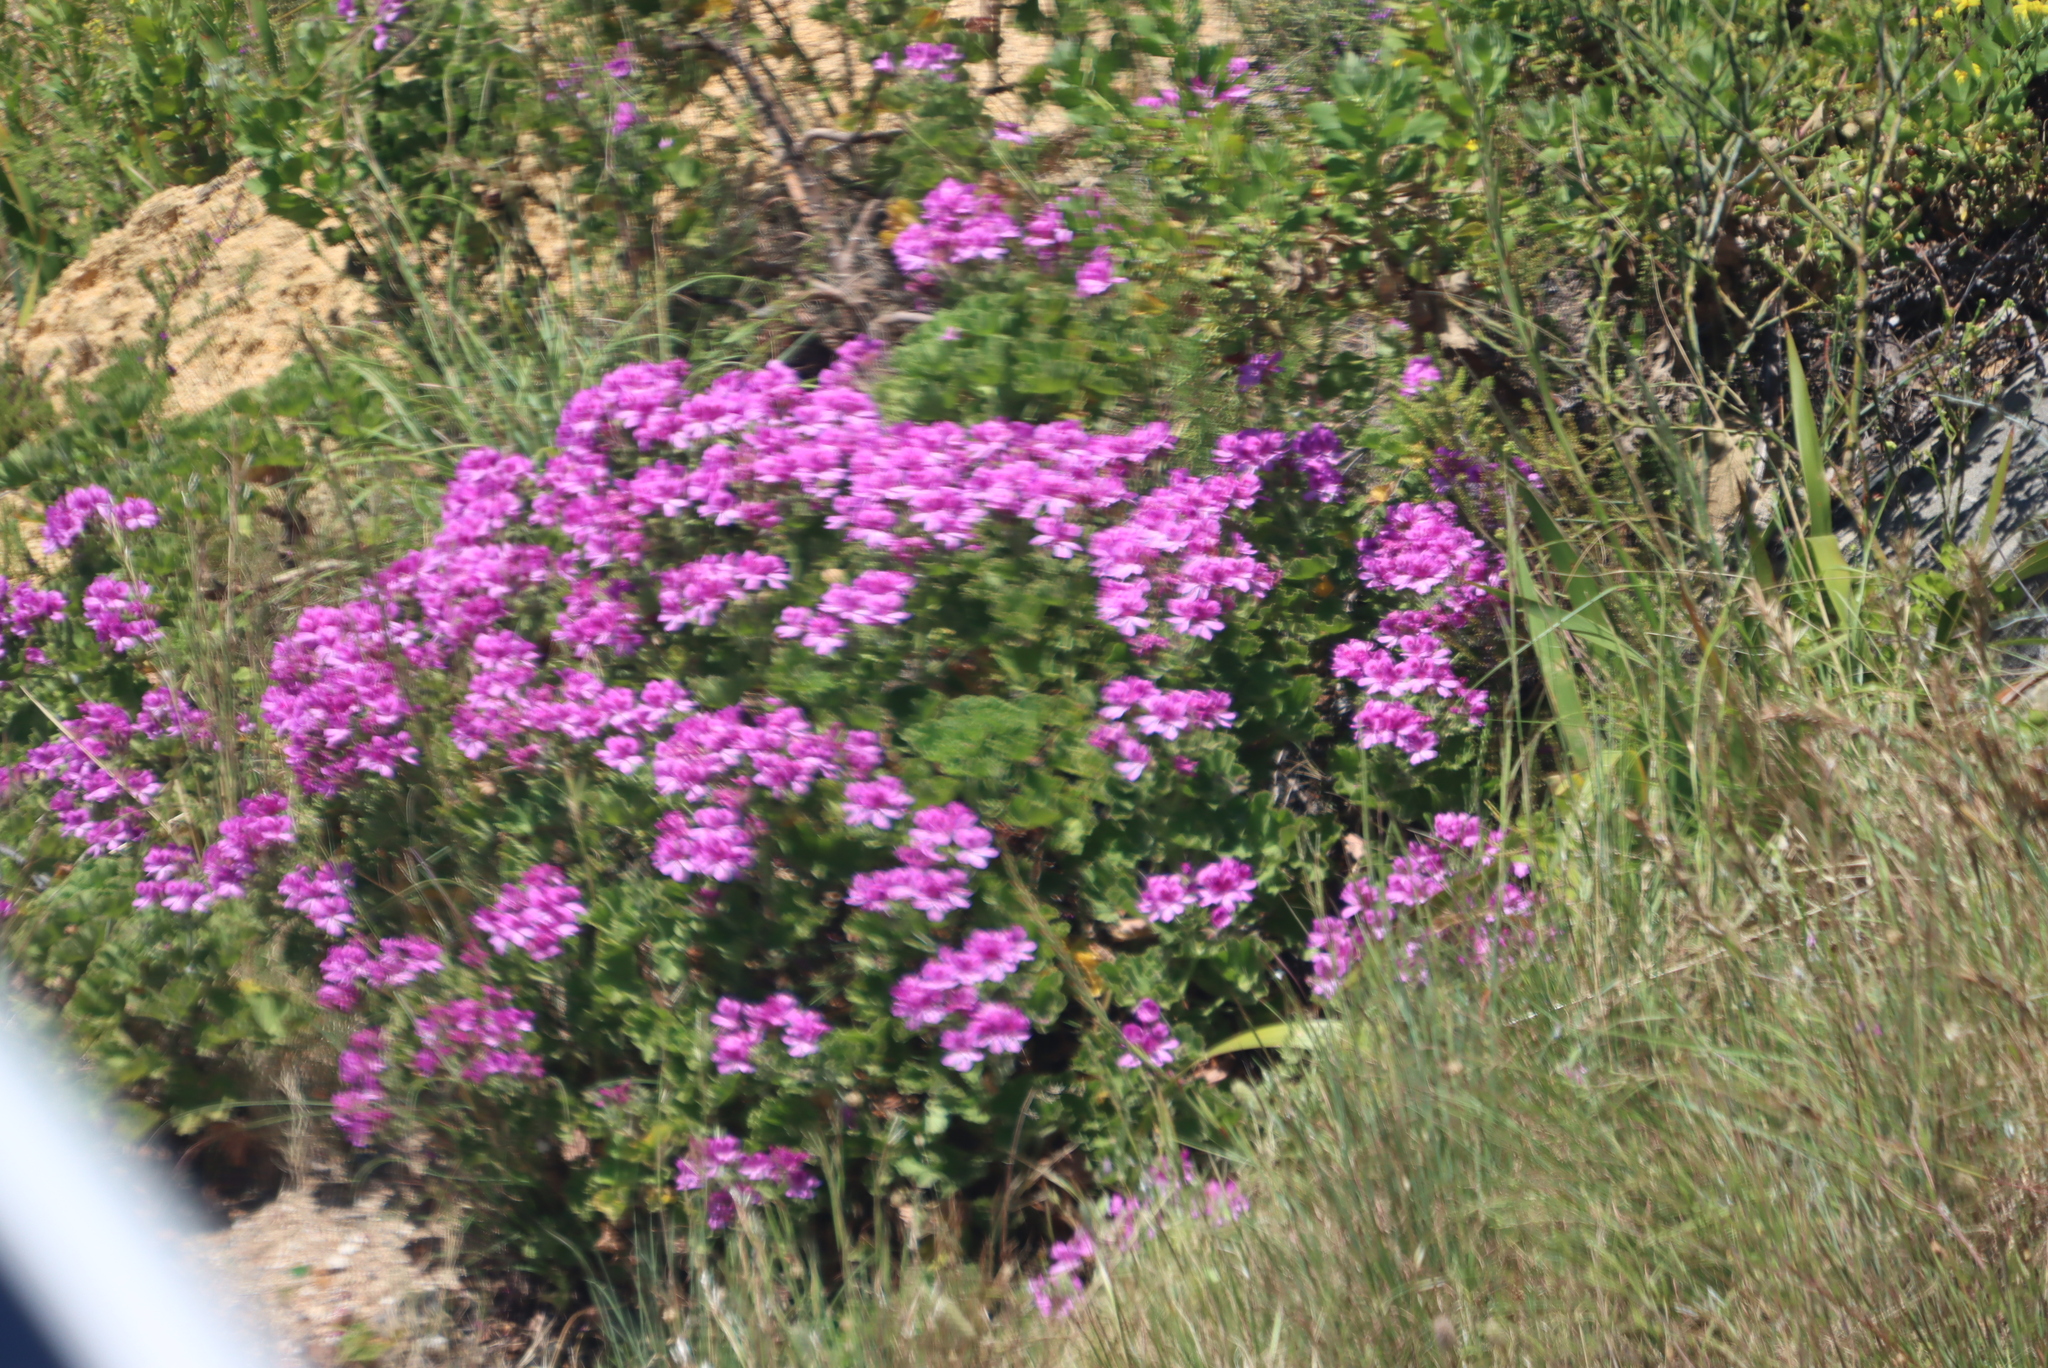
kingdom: Plantae
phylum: Tracheophyta
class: Magnoliopsida
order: Geraniales
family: Geraniaceae
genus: Pelargonium
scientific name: Pelargonium cucullatum
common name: Tree pelargonium
